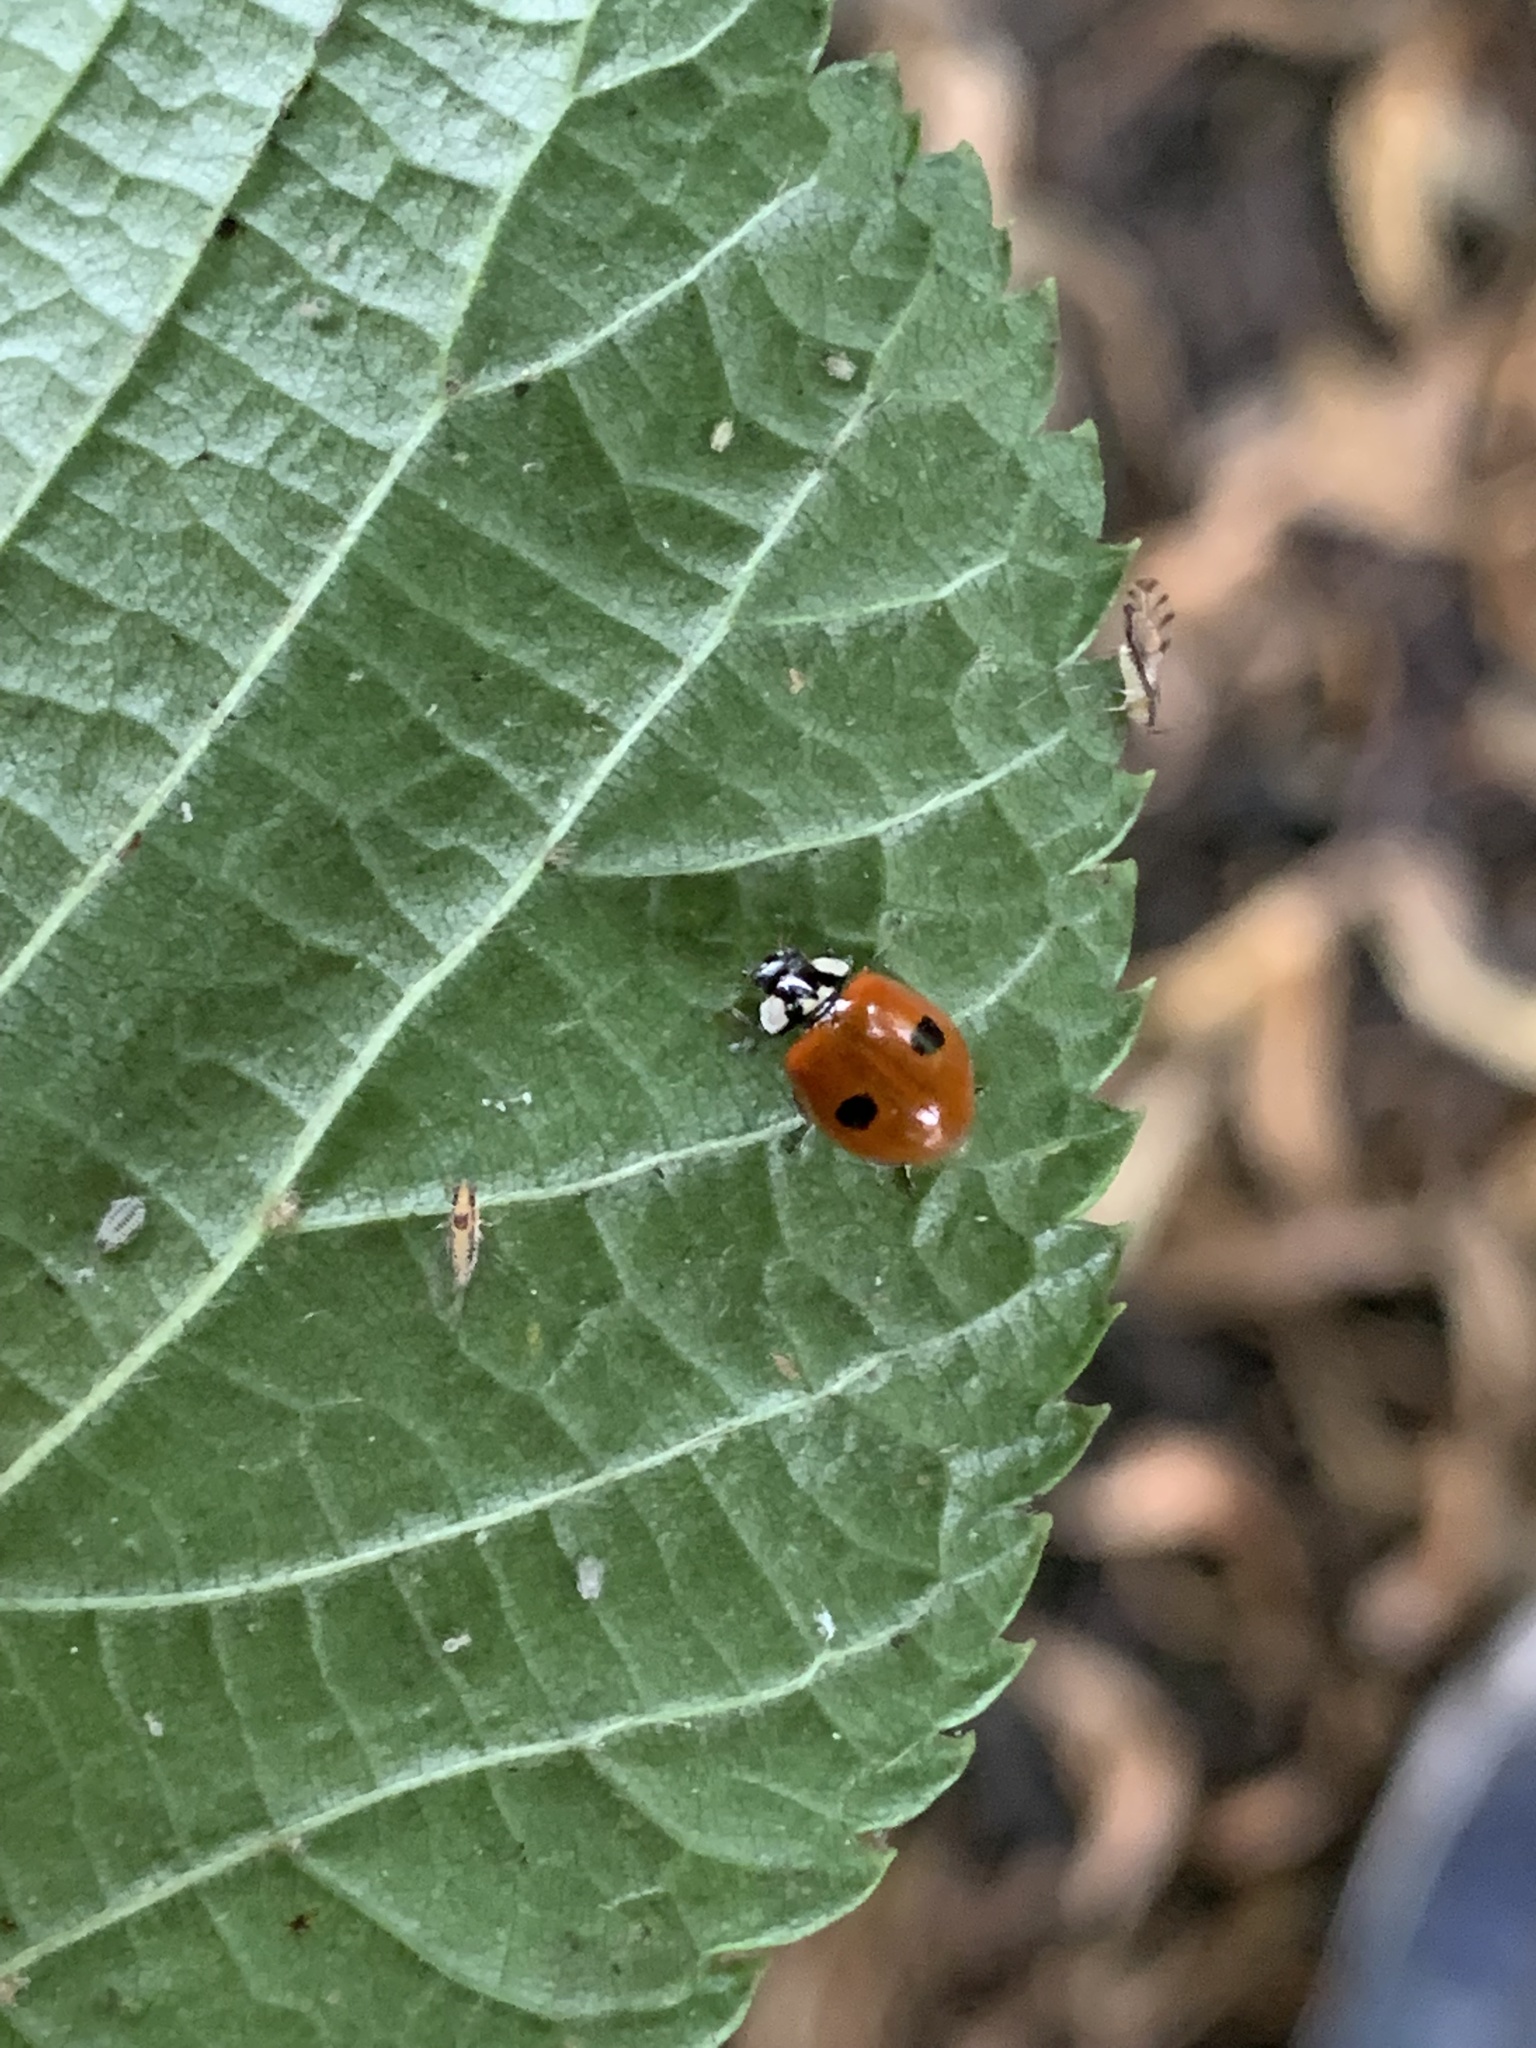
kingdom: Animalia
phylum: Arthropoda
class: Insecta
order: Coleoptera
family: Coccinellidae
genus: Adalia
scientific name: Adalia bipunctata
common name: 2-spot ladybird
